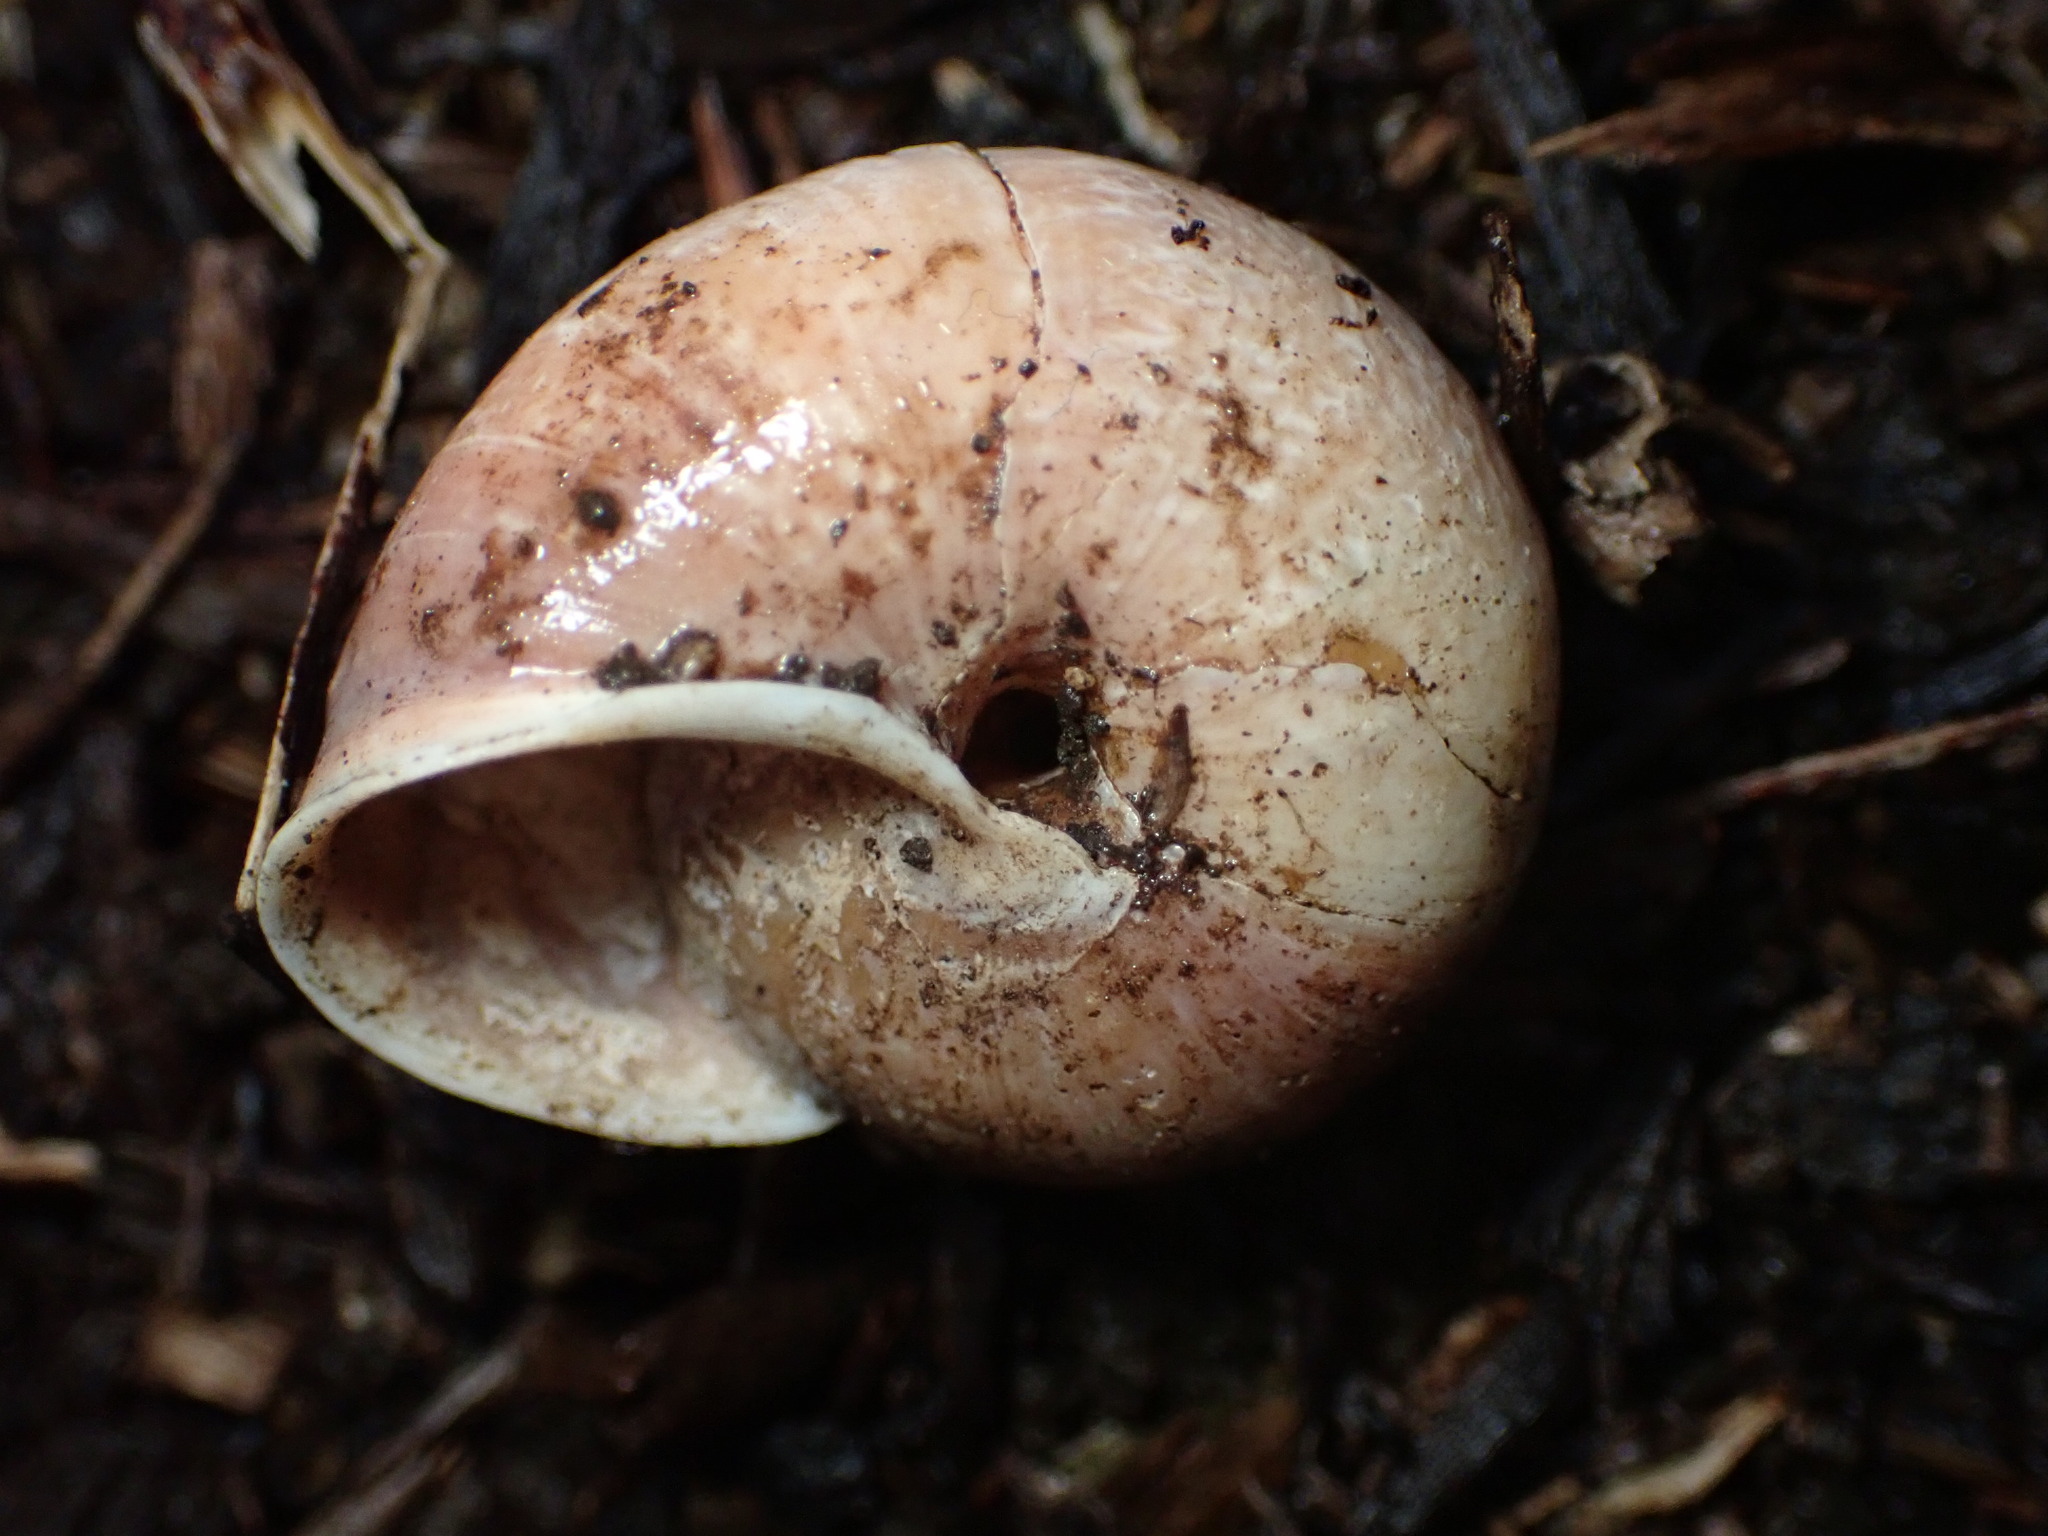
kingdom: Animalia
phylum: Mollusca
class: Gastropoda
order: Stylommatophora
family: Xanthonychidae
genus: Helminthoglypta
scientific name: Helminthoglypta exarata
